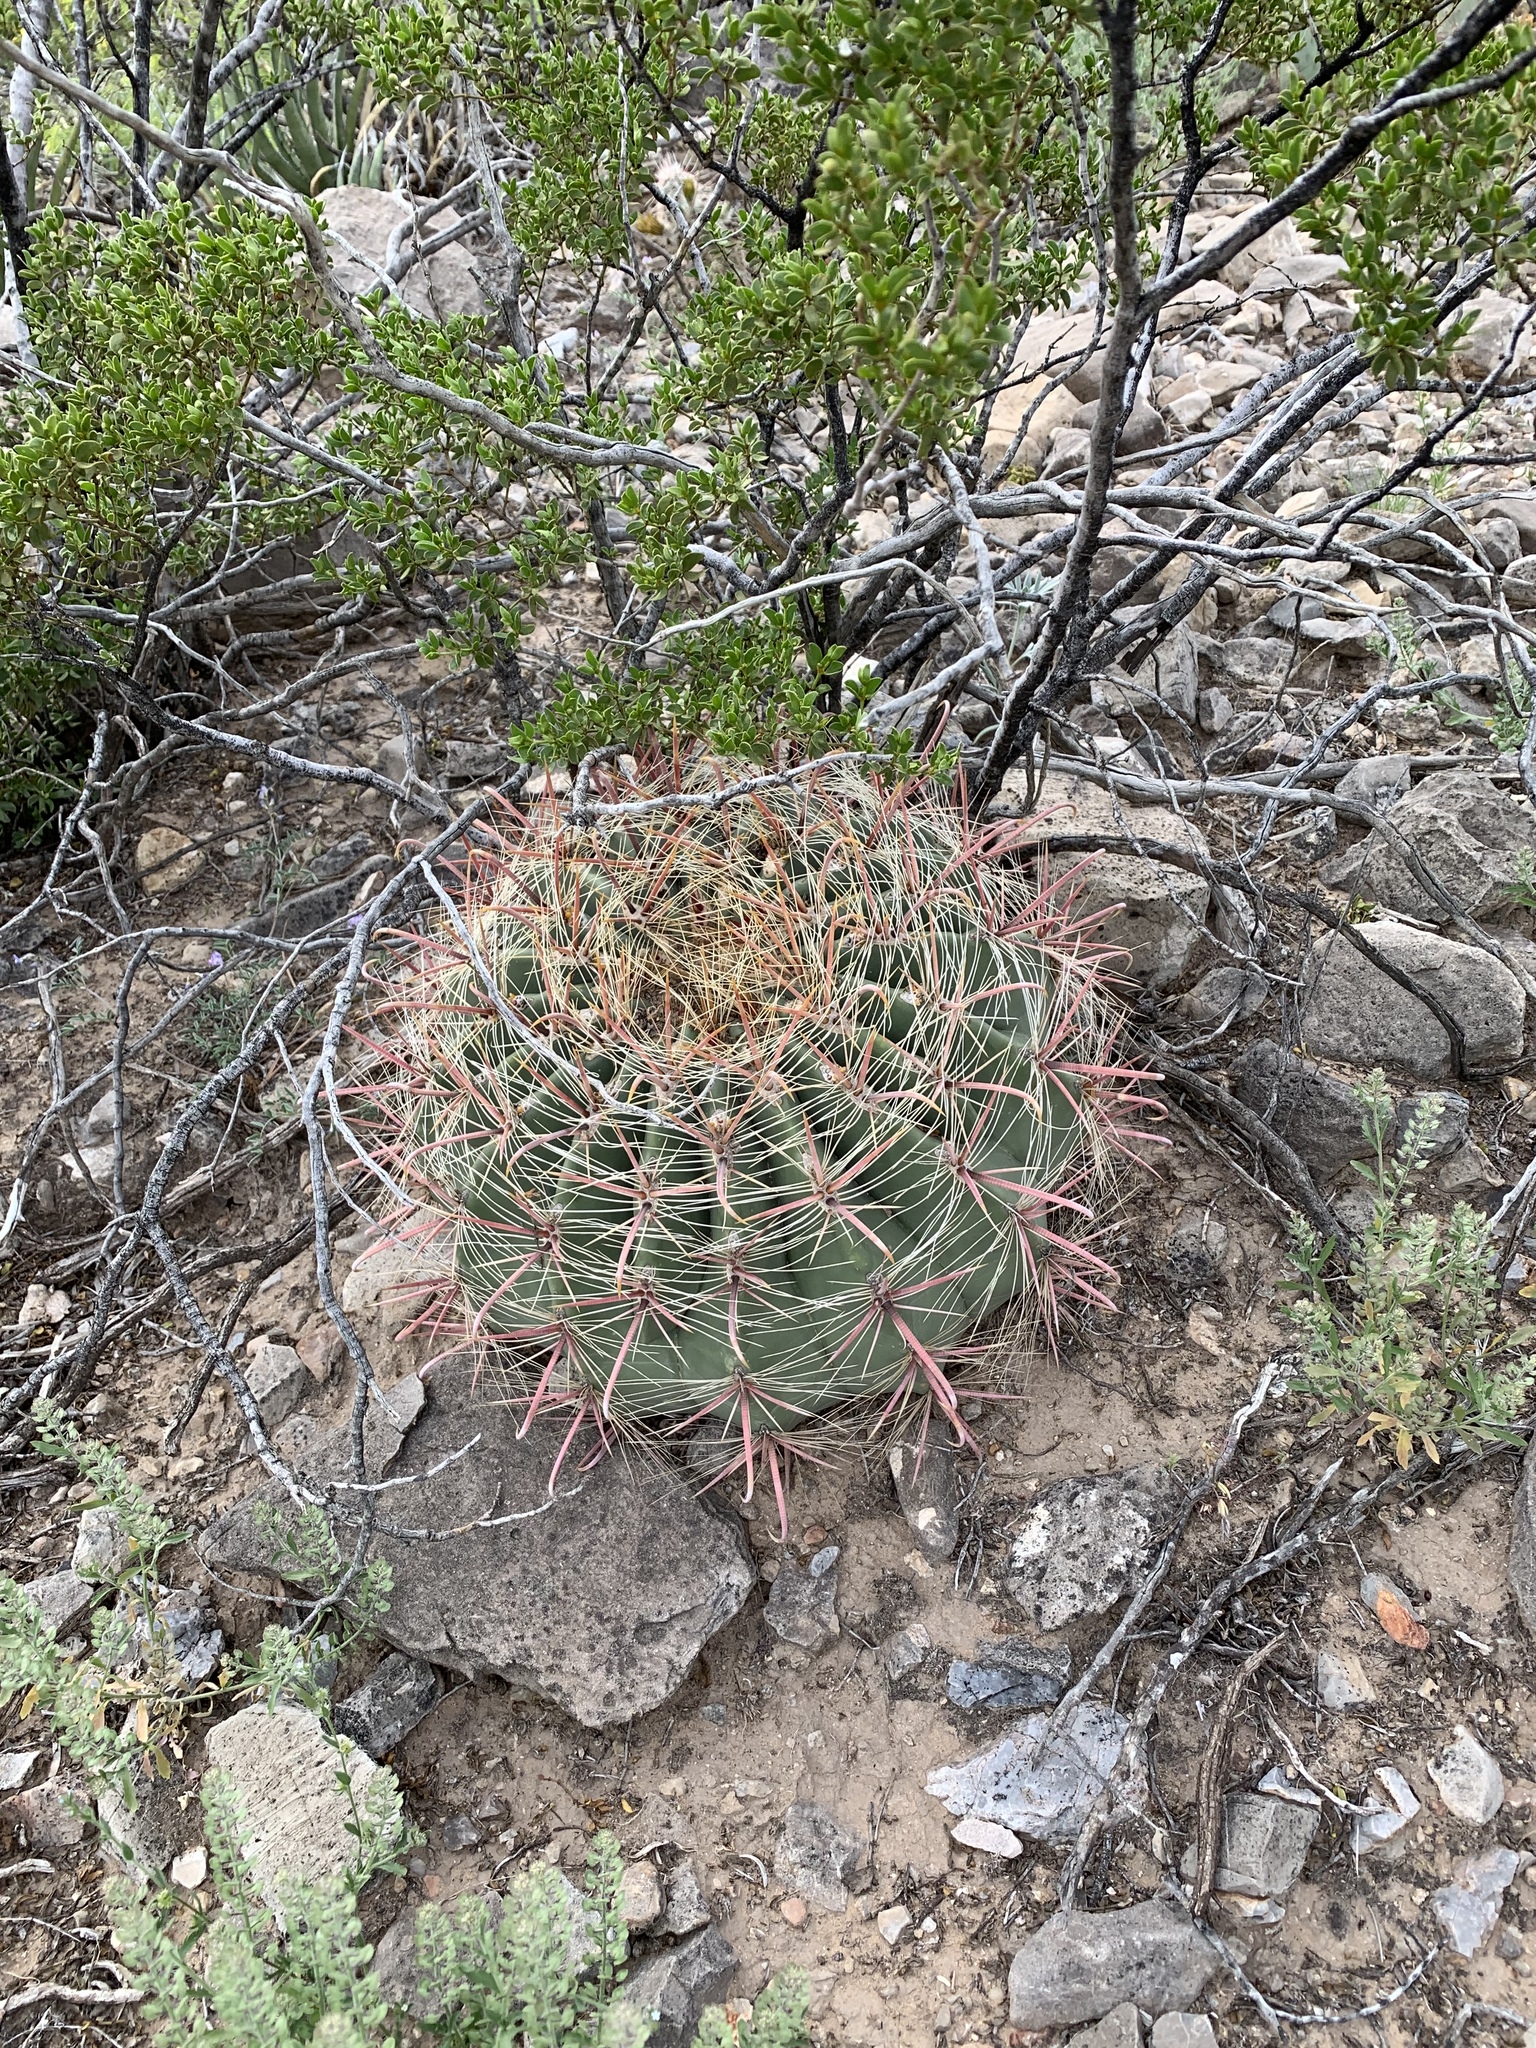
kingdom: Plantae
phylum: Tracheophyta
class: Magnoliopsida
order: Caryophyllales
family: Cactaceae
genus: Ferocactus
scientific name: Ferocactus wislizeni
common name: Candy barrel cactus
